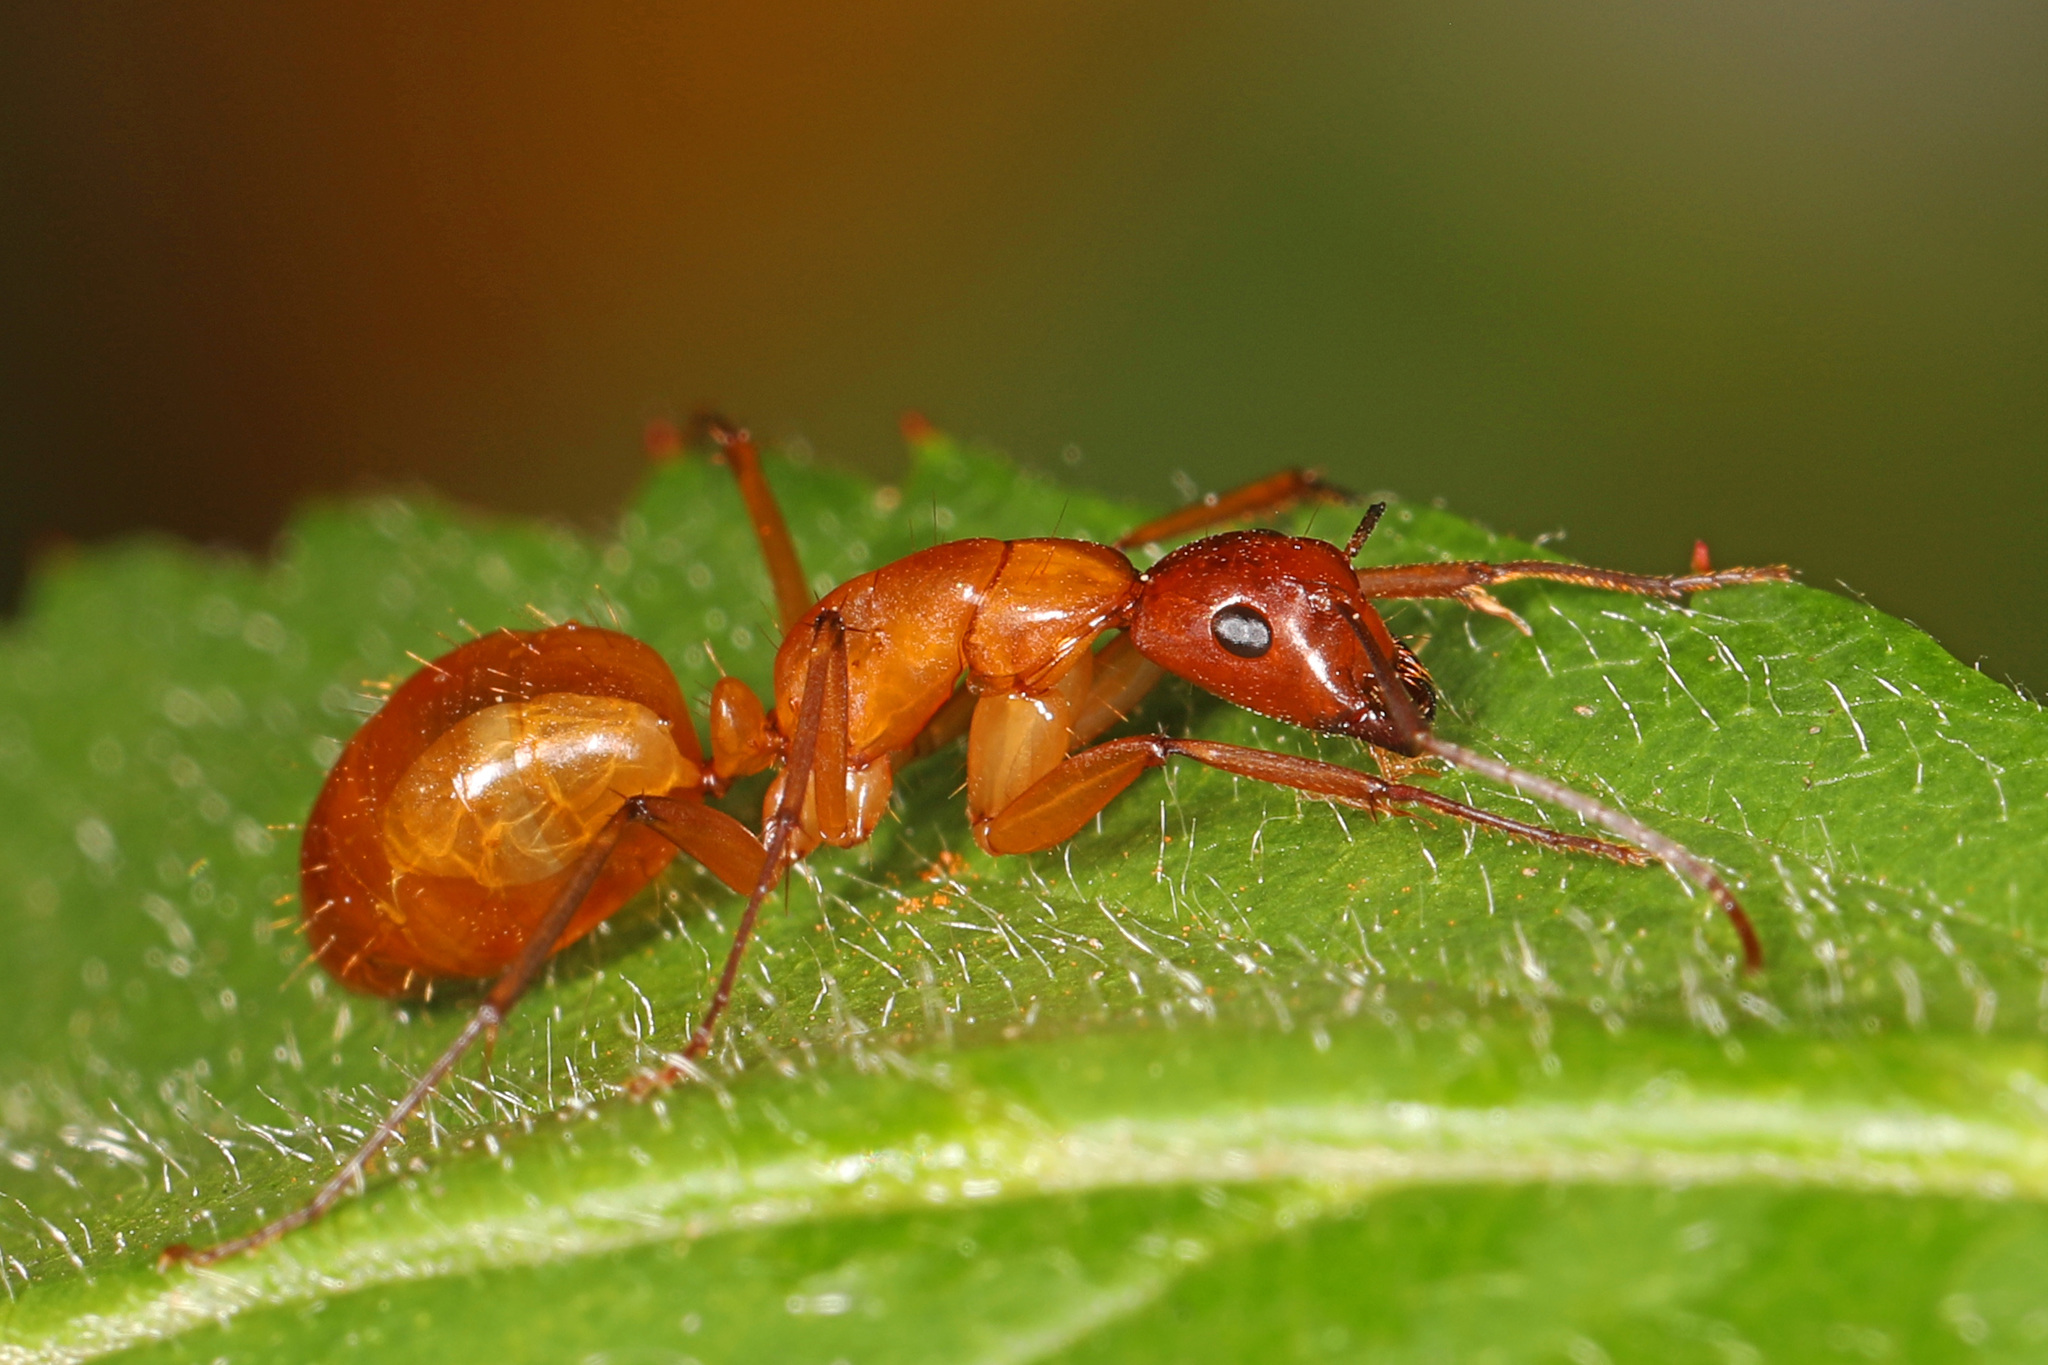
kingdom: Animalia
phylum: Arthropoda
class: Insecta
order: Hymenoptera
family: Formicidae
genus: Camponotus
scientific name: Camponotus castaneus
